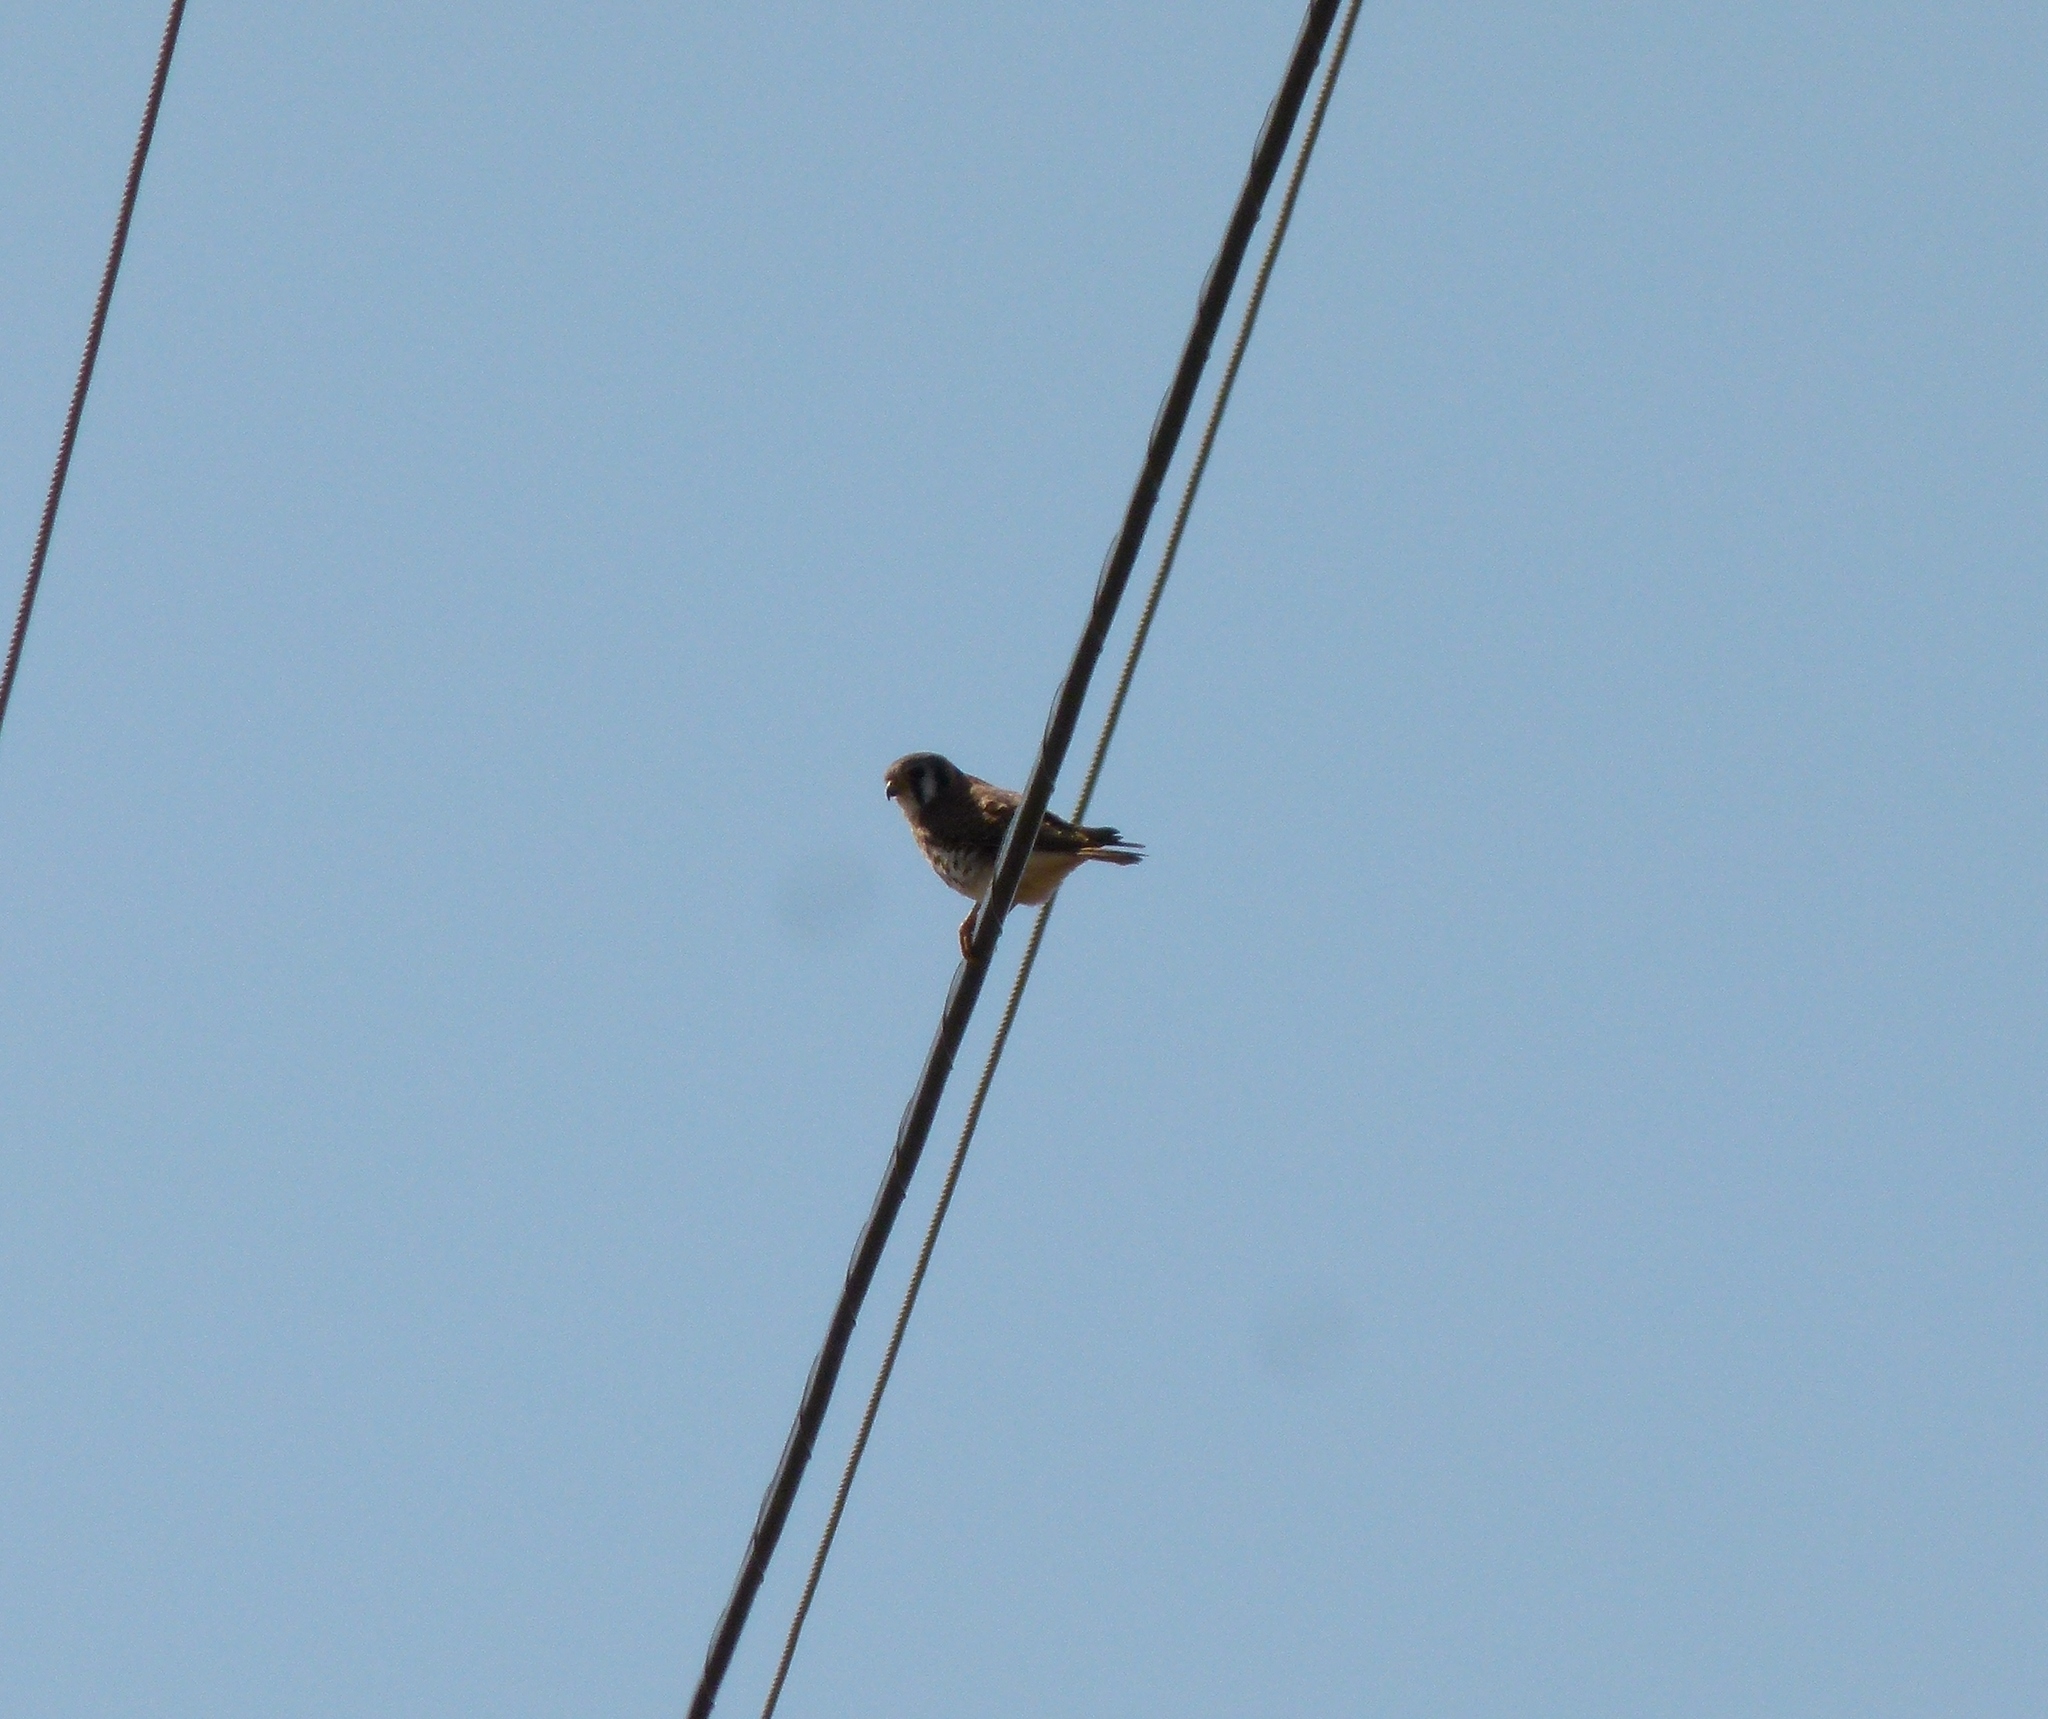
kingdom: Animalia
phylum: Chordata
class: Aves
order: Falconiformes
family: Falconidae
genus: Falco
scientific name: Falco sparverius
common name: American kestrel
